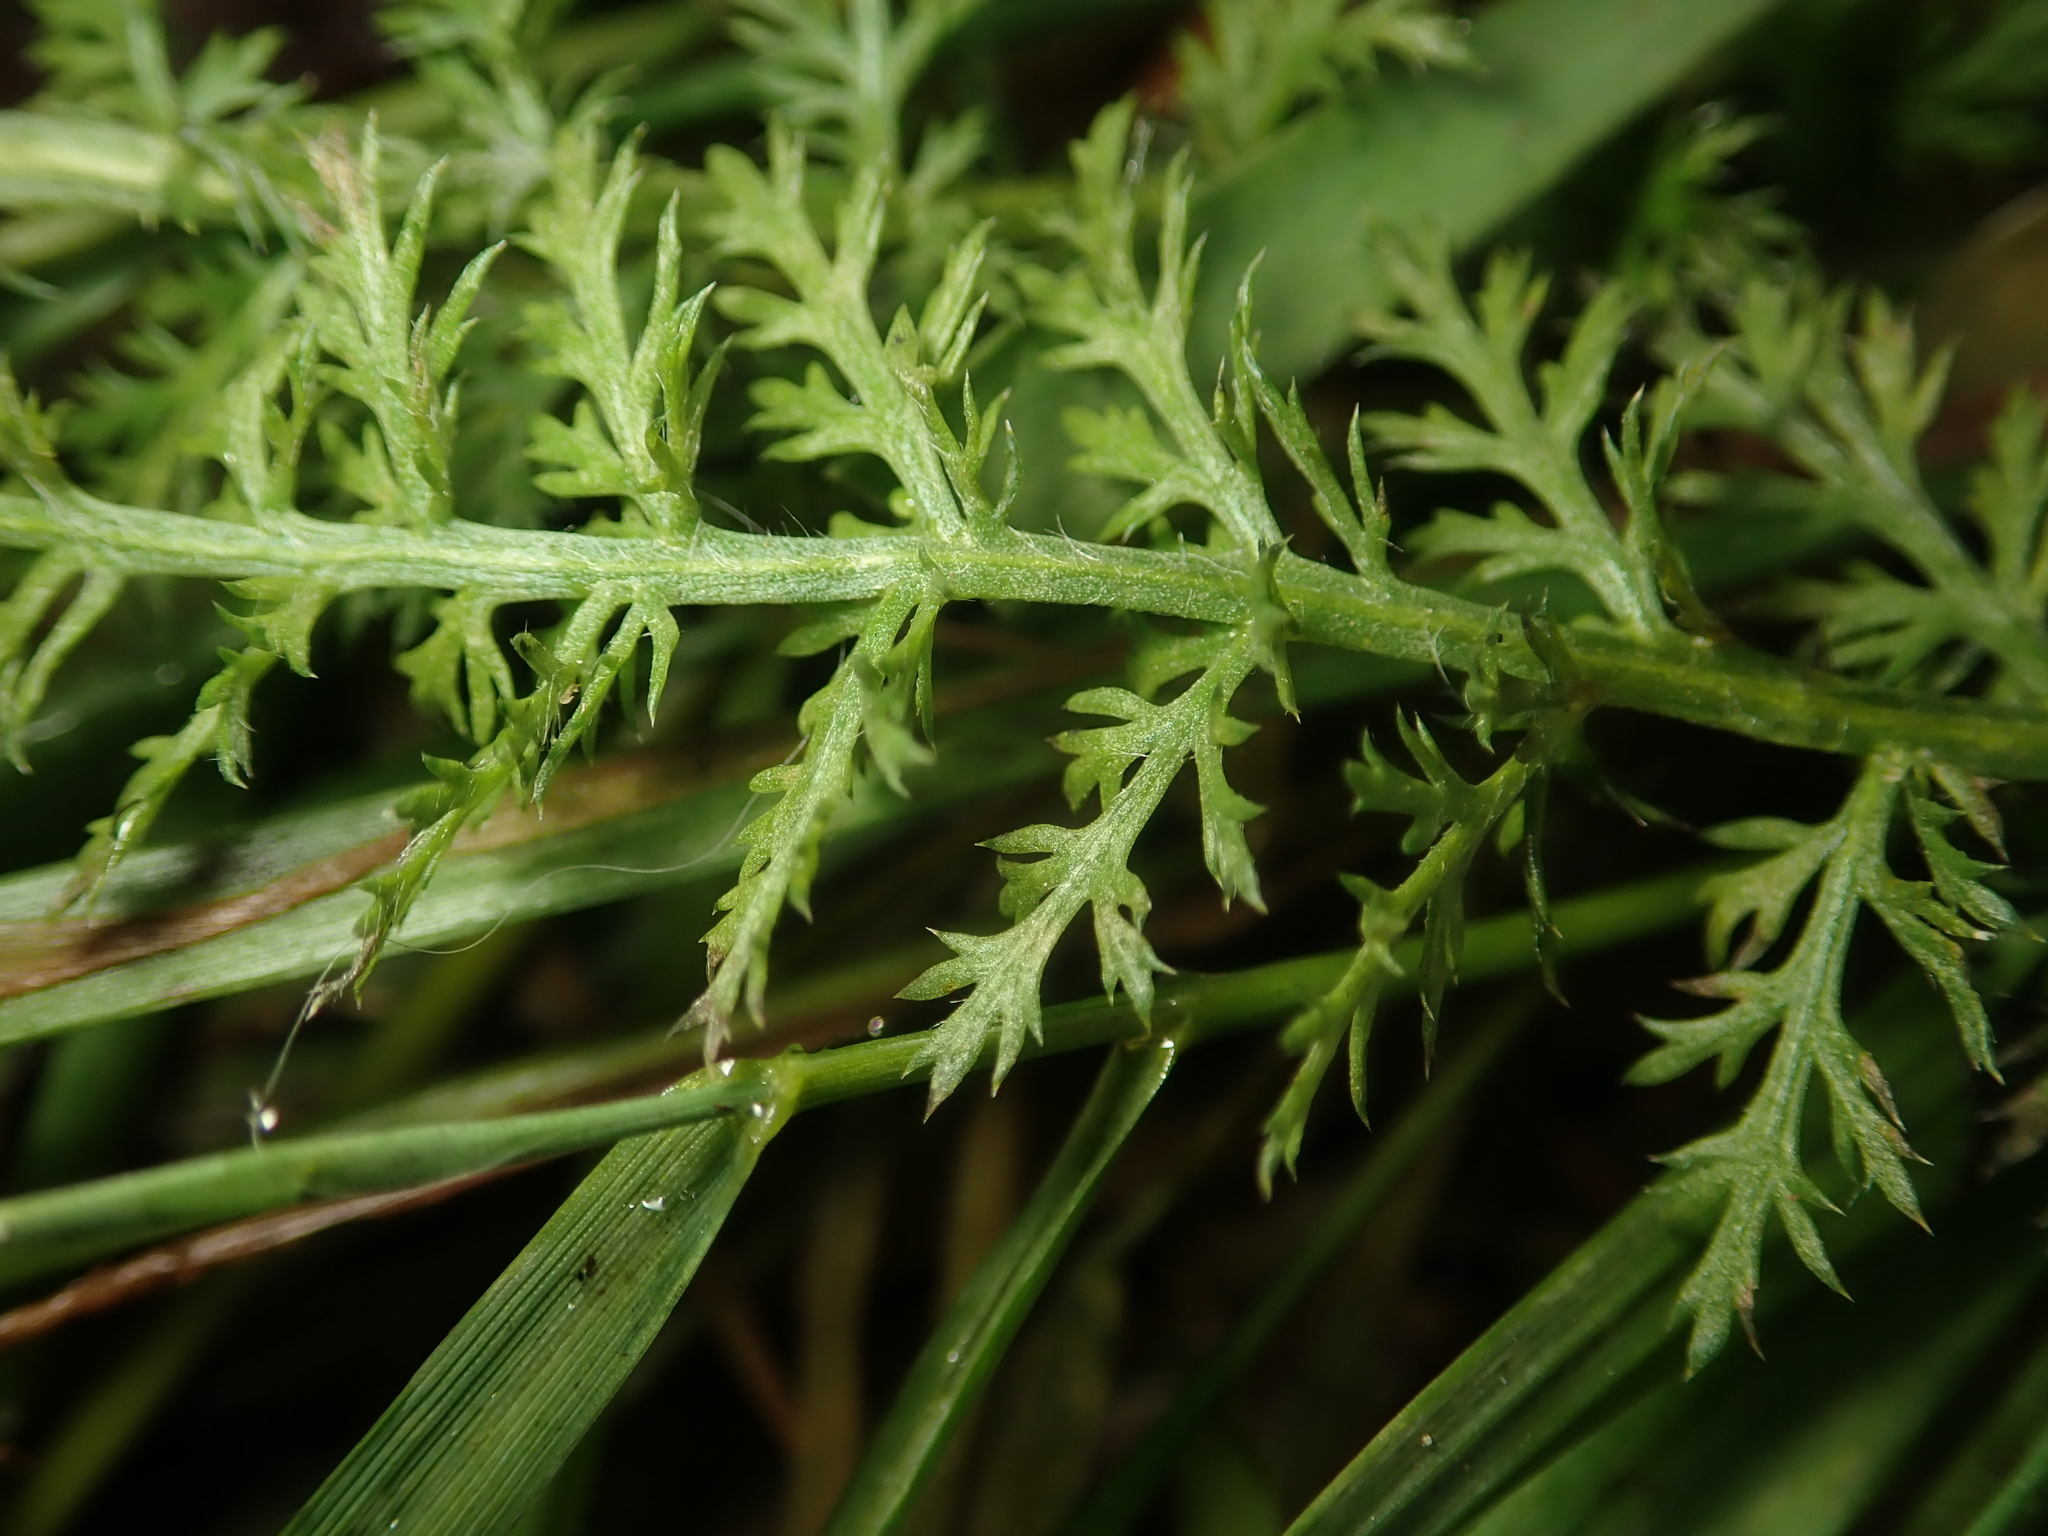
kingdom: Plantae
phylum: Tracheophyta
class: Magnoliopsida
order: Asterales
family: Asteraceae
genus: Achillea
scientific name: Achillea millefolium
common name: Yarrow
